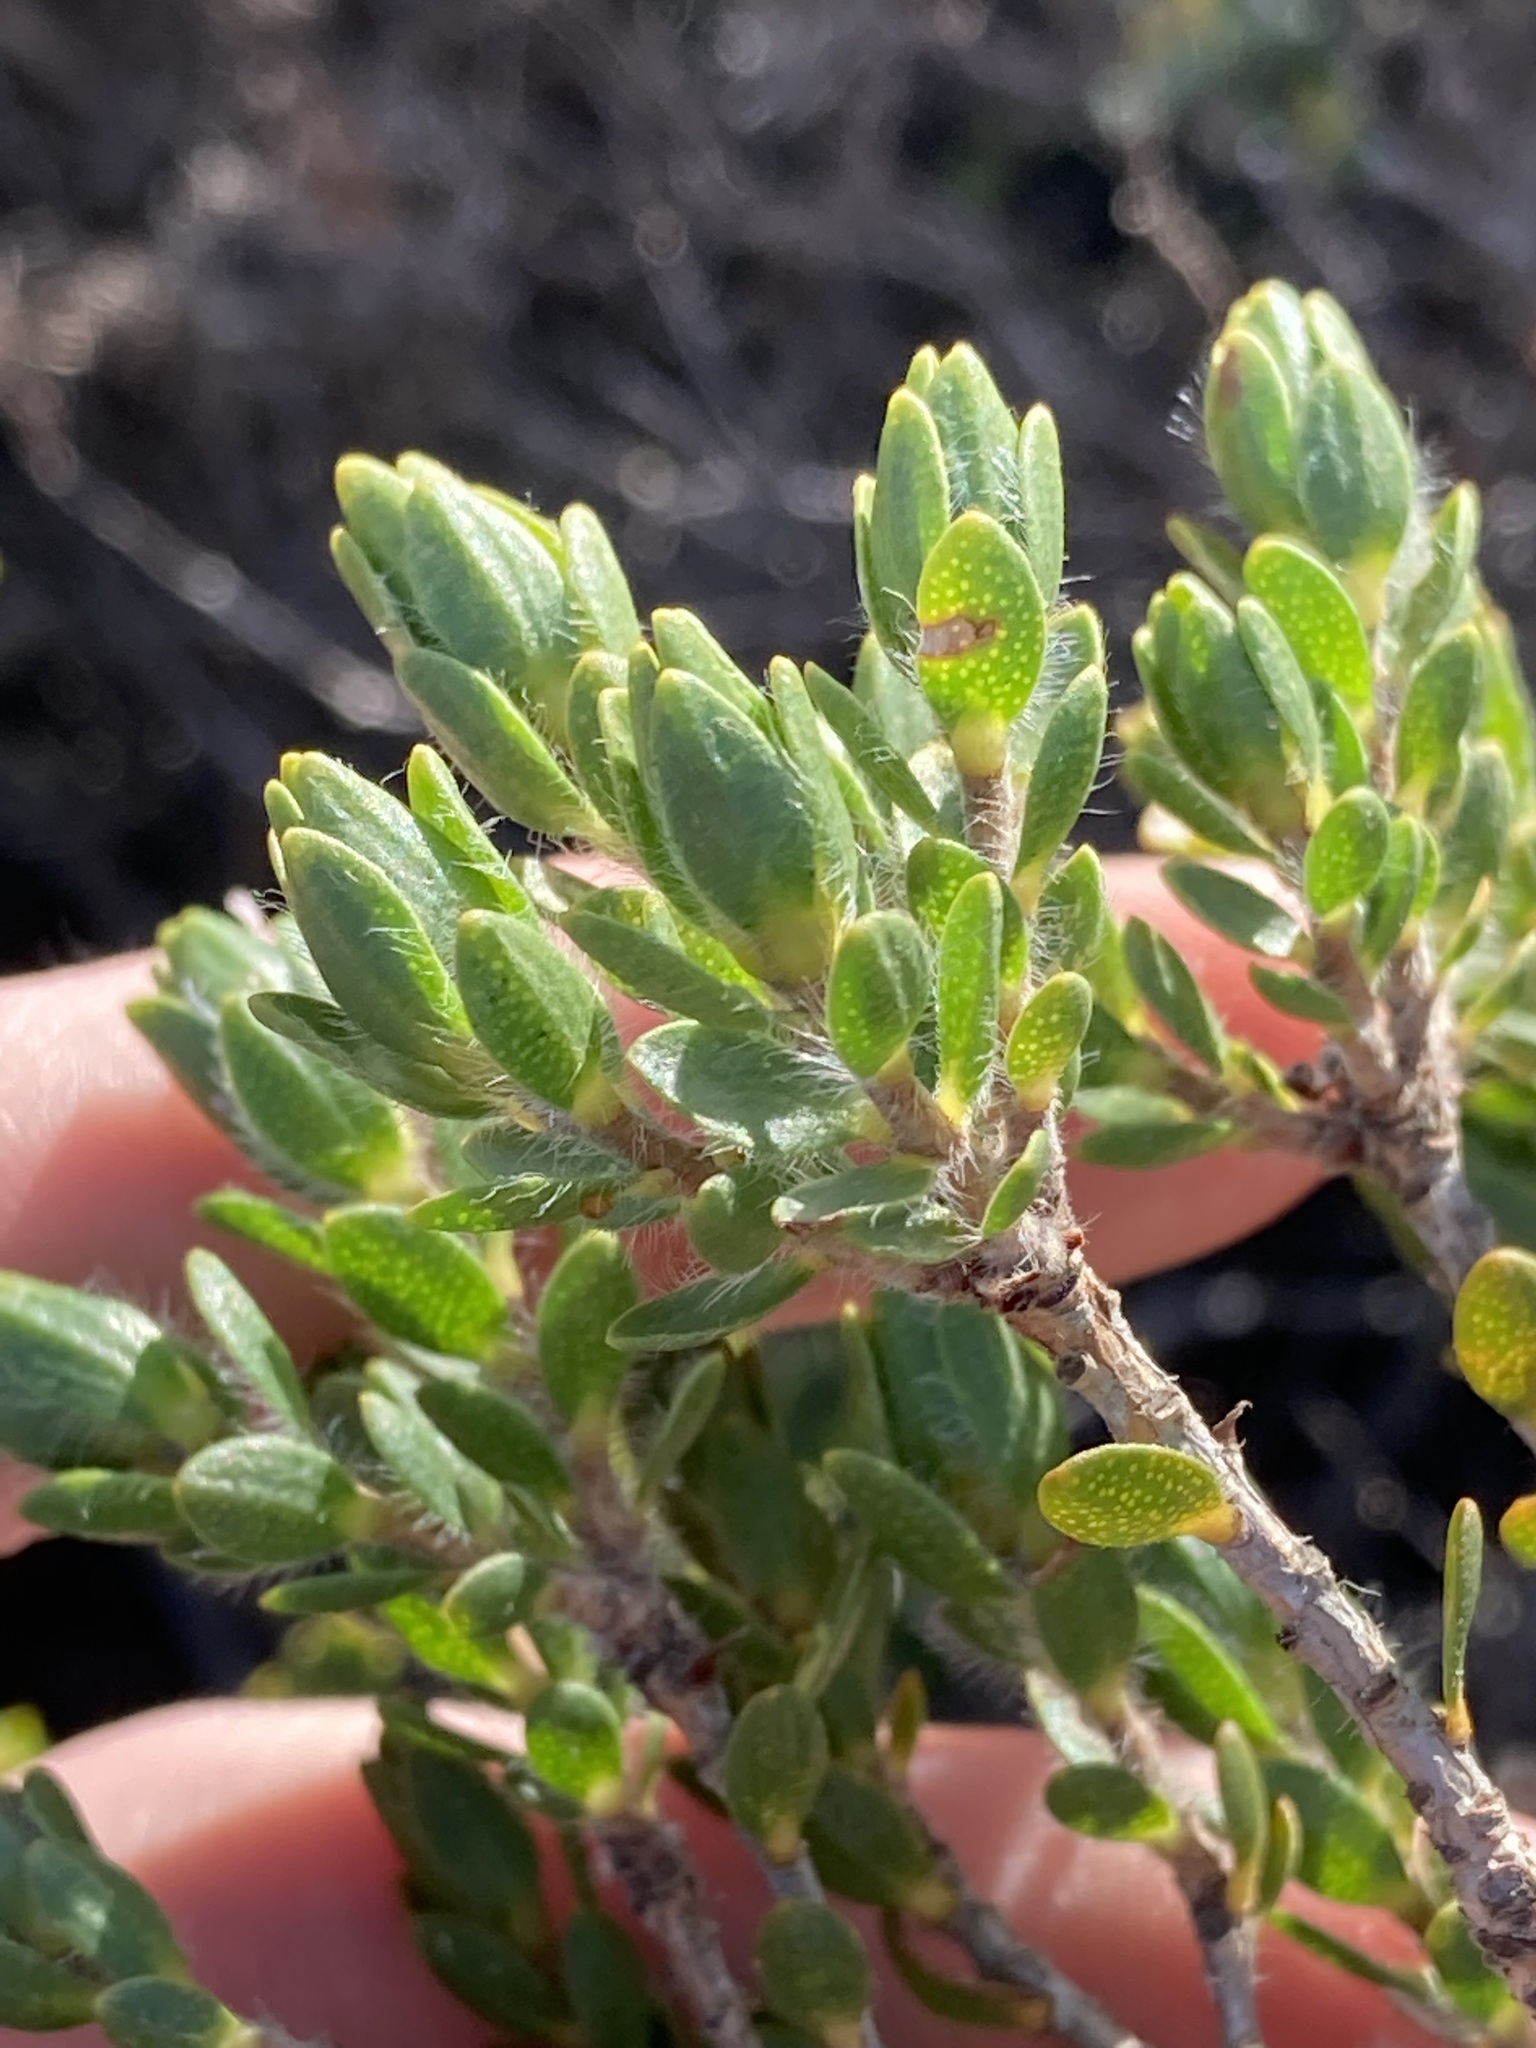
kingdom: Plantae
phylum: Tracheophyta
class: Magnoliopsida
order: Myrtales
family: Myrtaceae
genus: Melaleuca
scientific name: Melaleuca asterocarpa
